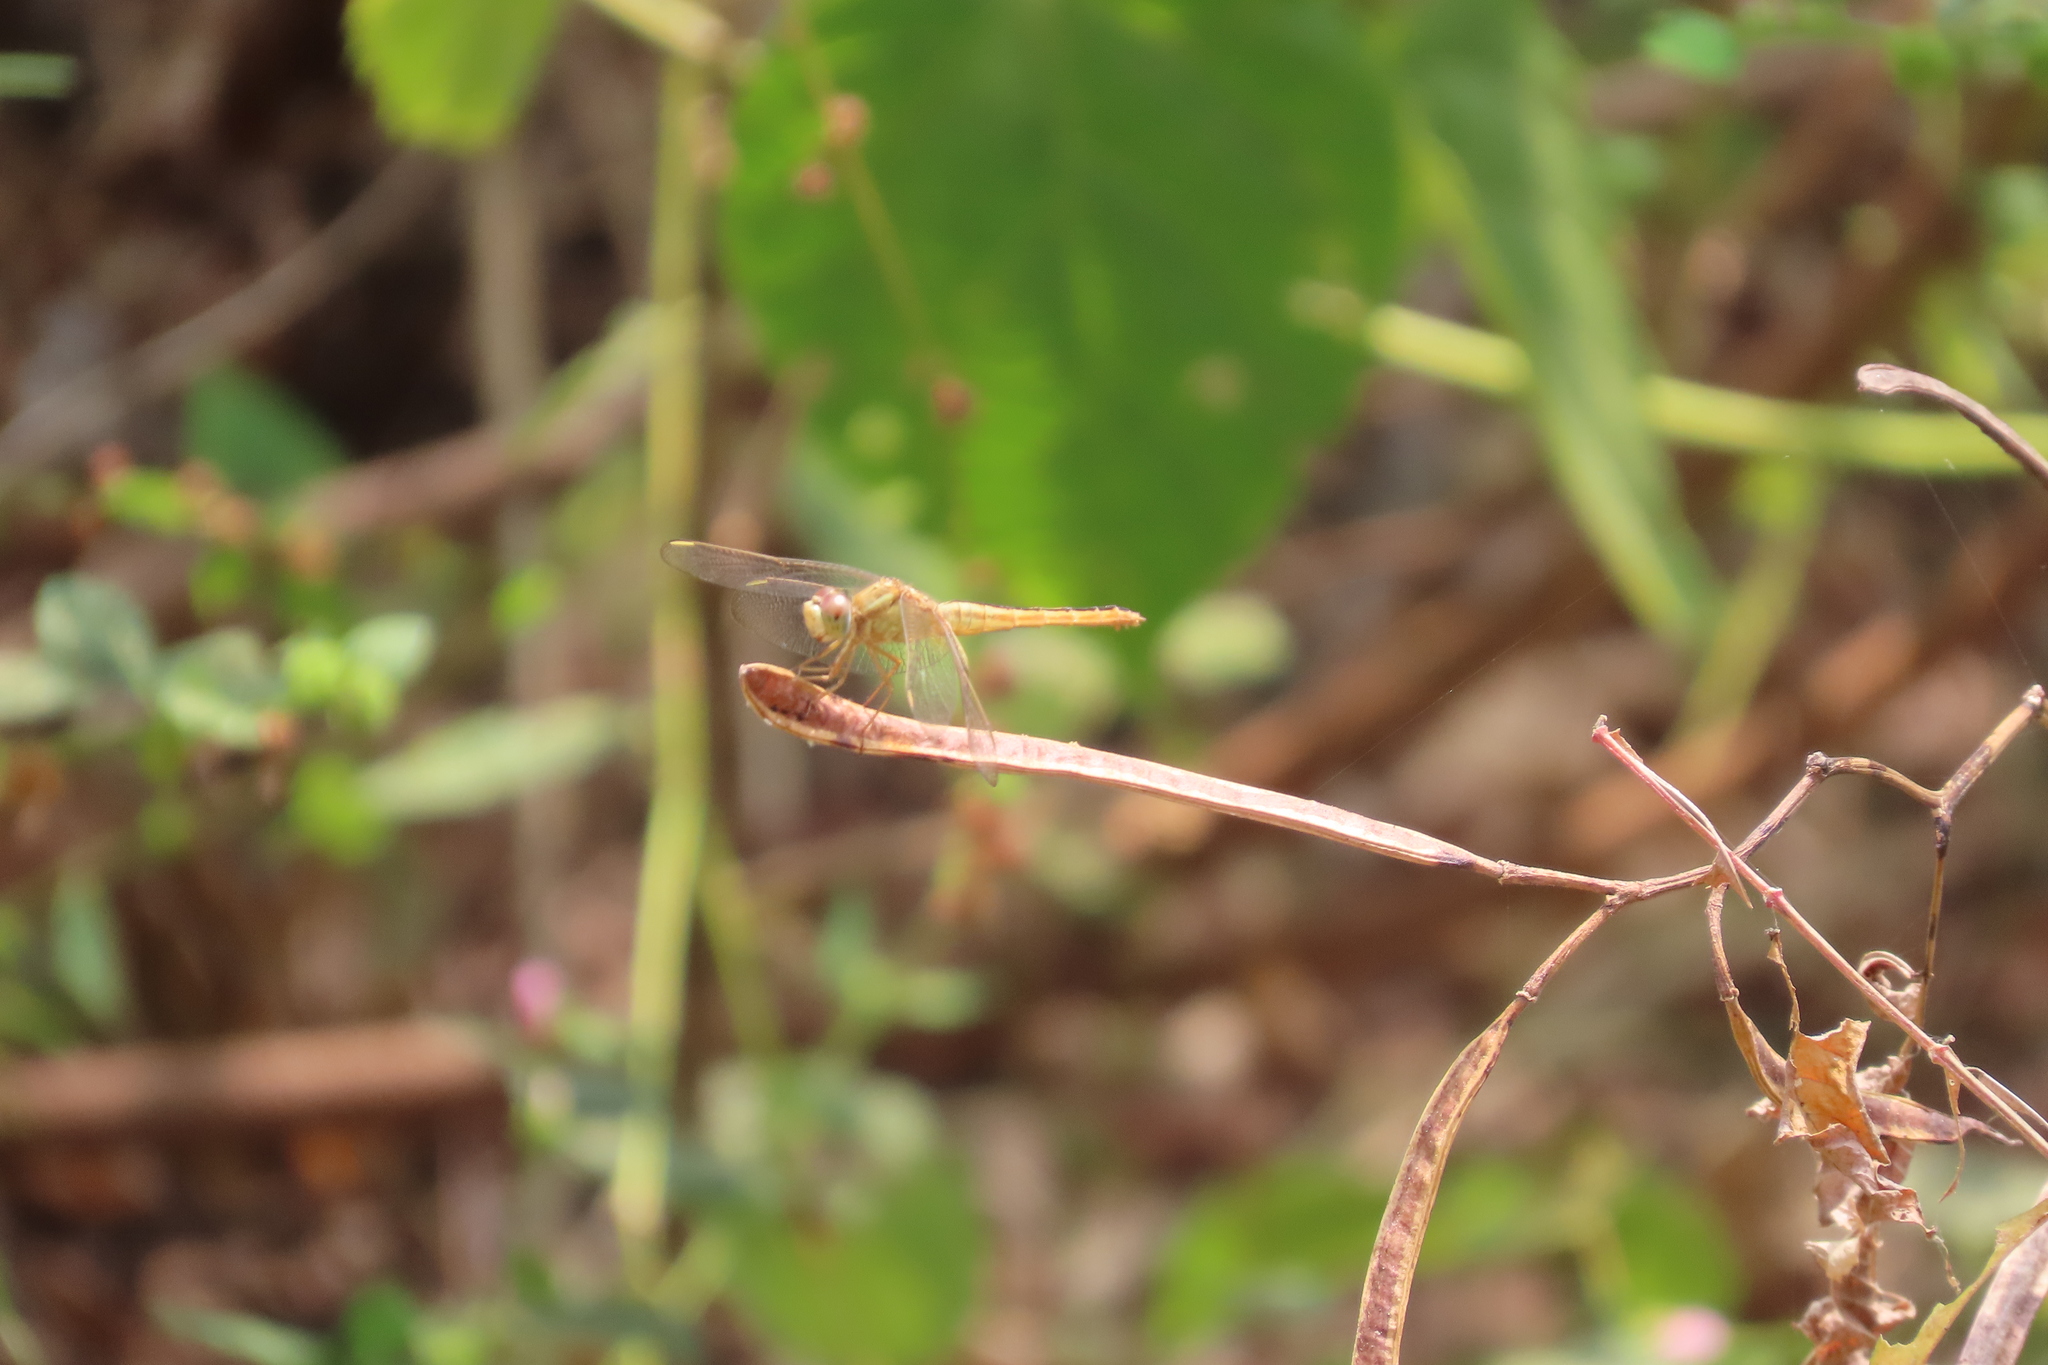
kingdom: Animalia
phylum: Arthropoda
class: Insecta
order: Odonata
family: Libellulidae
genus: Crocothemis
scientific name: Crocothemis servilia
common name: Scarlet skimmer
